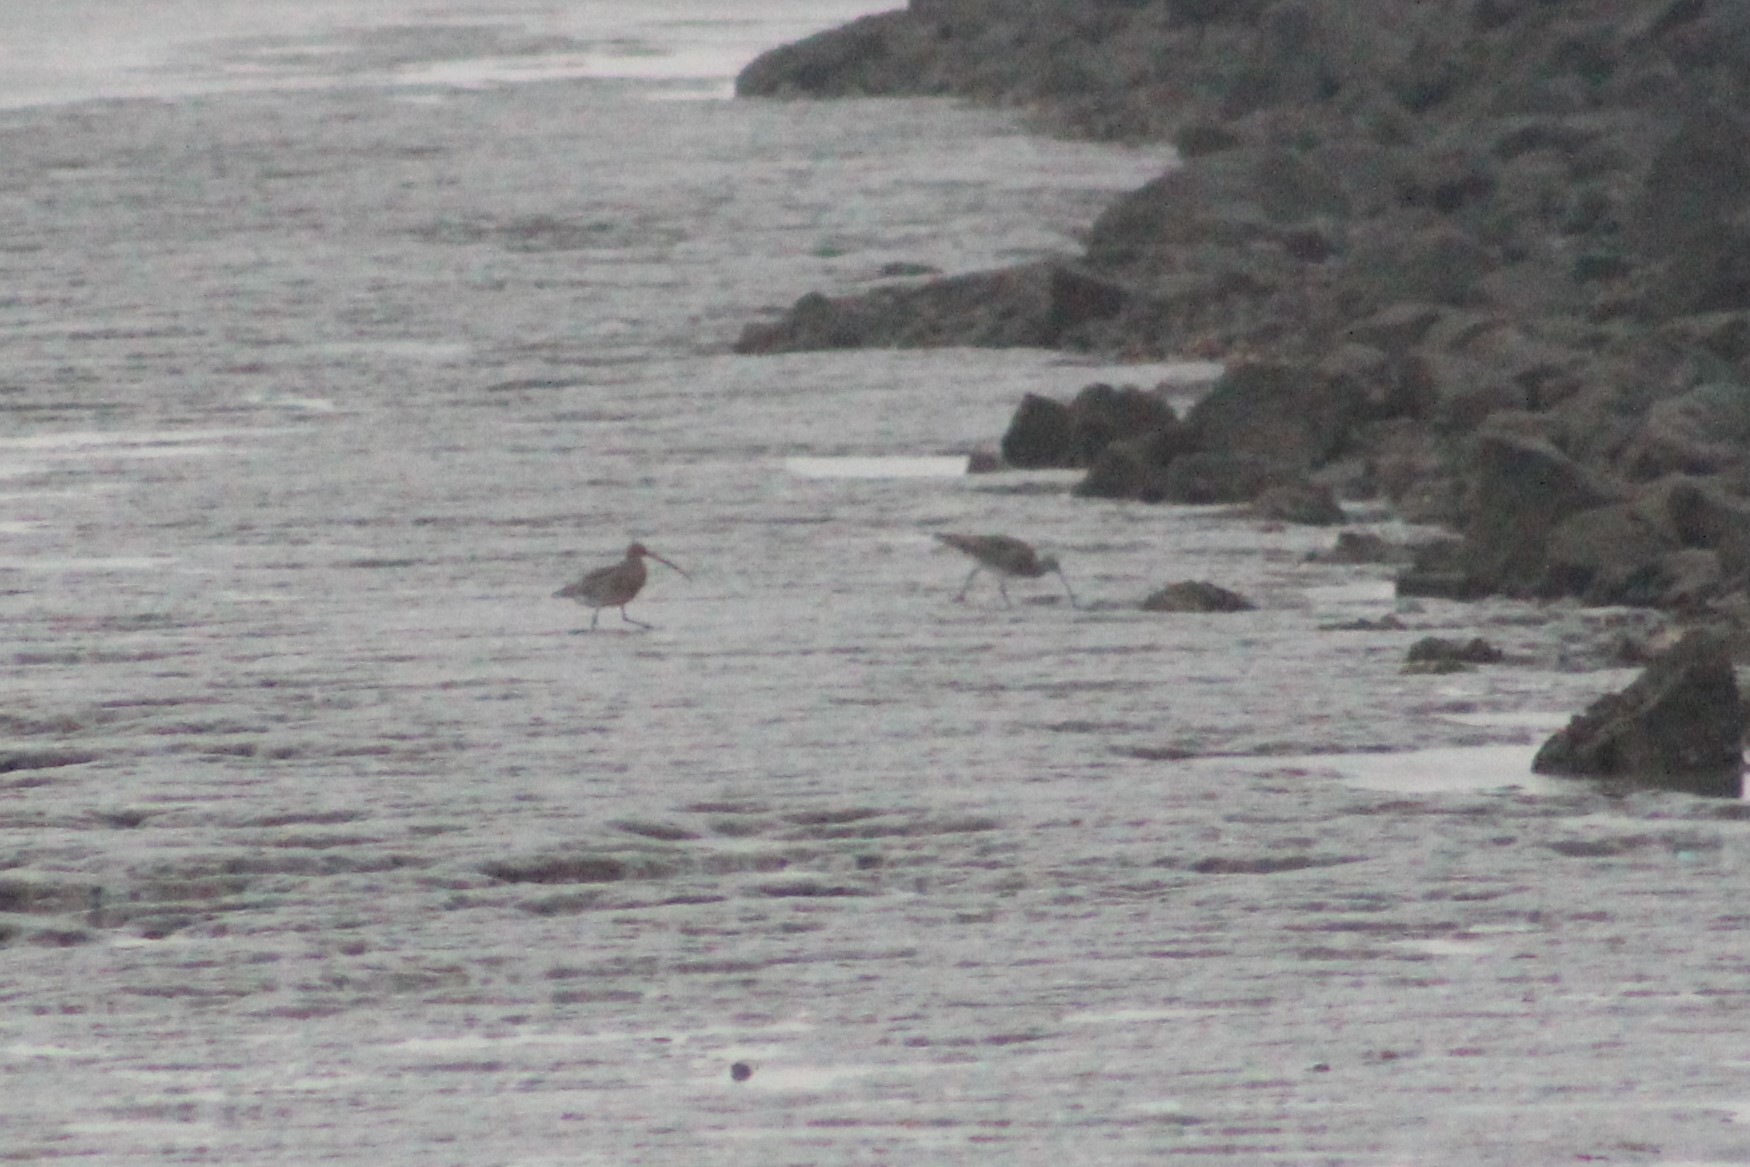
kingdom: Animalia
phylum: Chordata
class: Aves
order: Charadriiformes
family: Scolopacidae
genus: Numenius
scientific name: Numenius arquata
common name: Eurasian curlew
